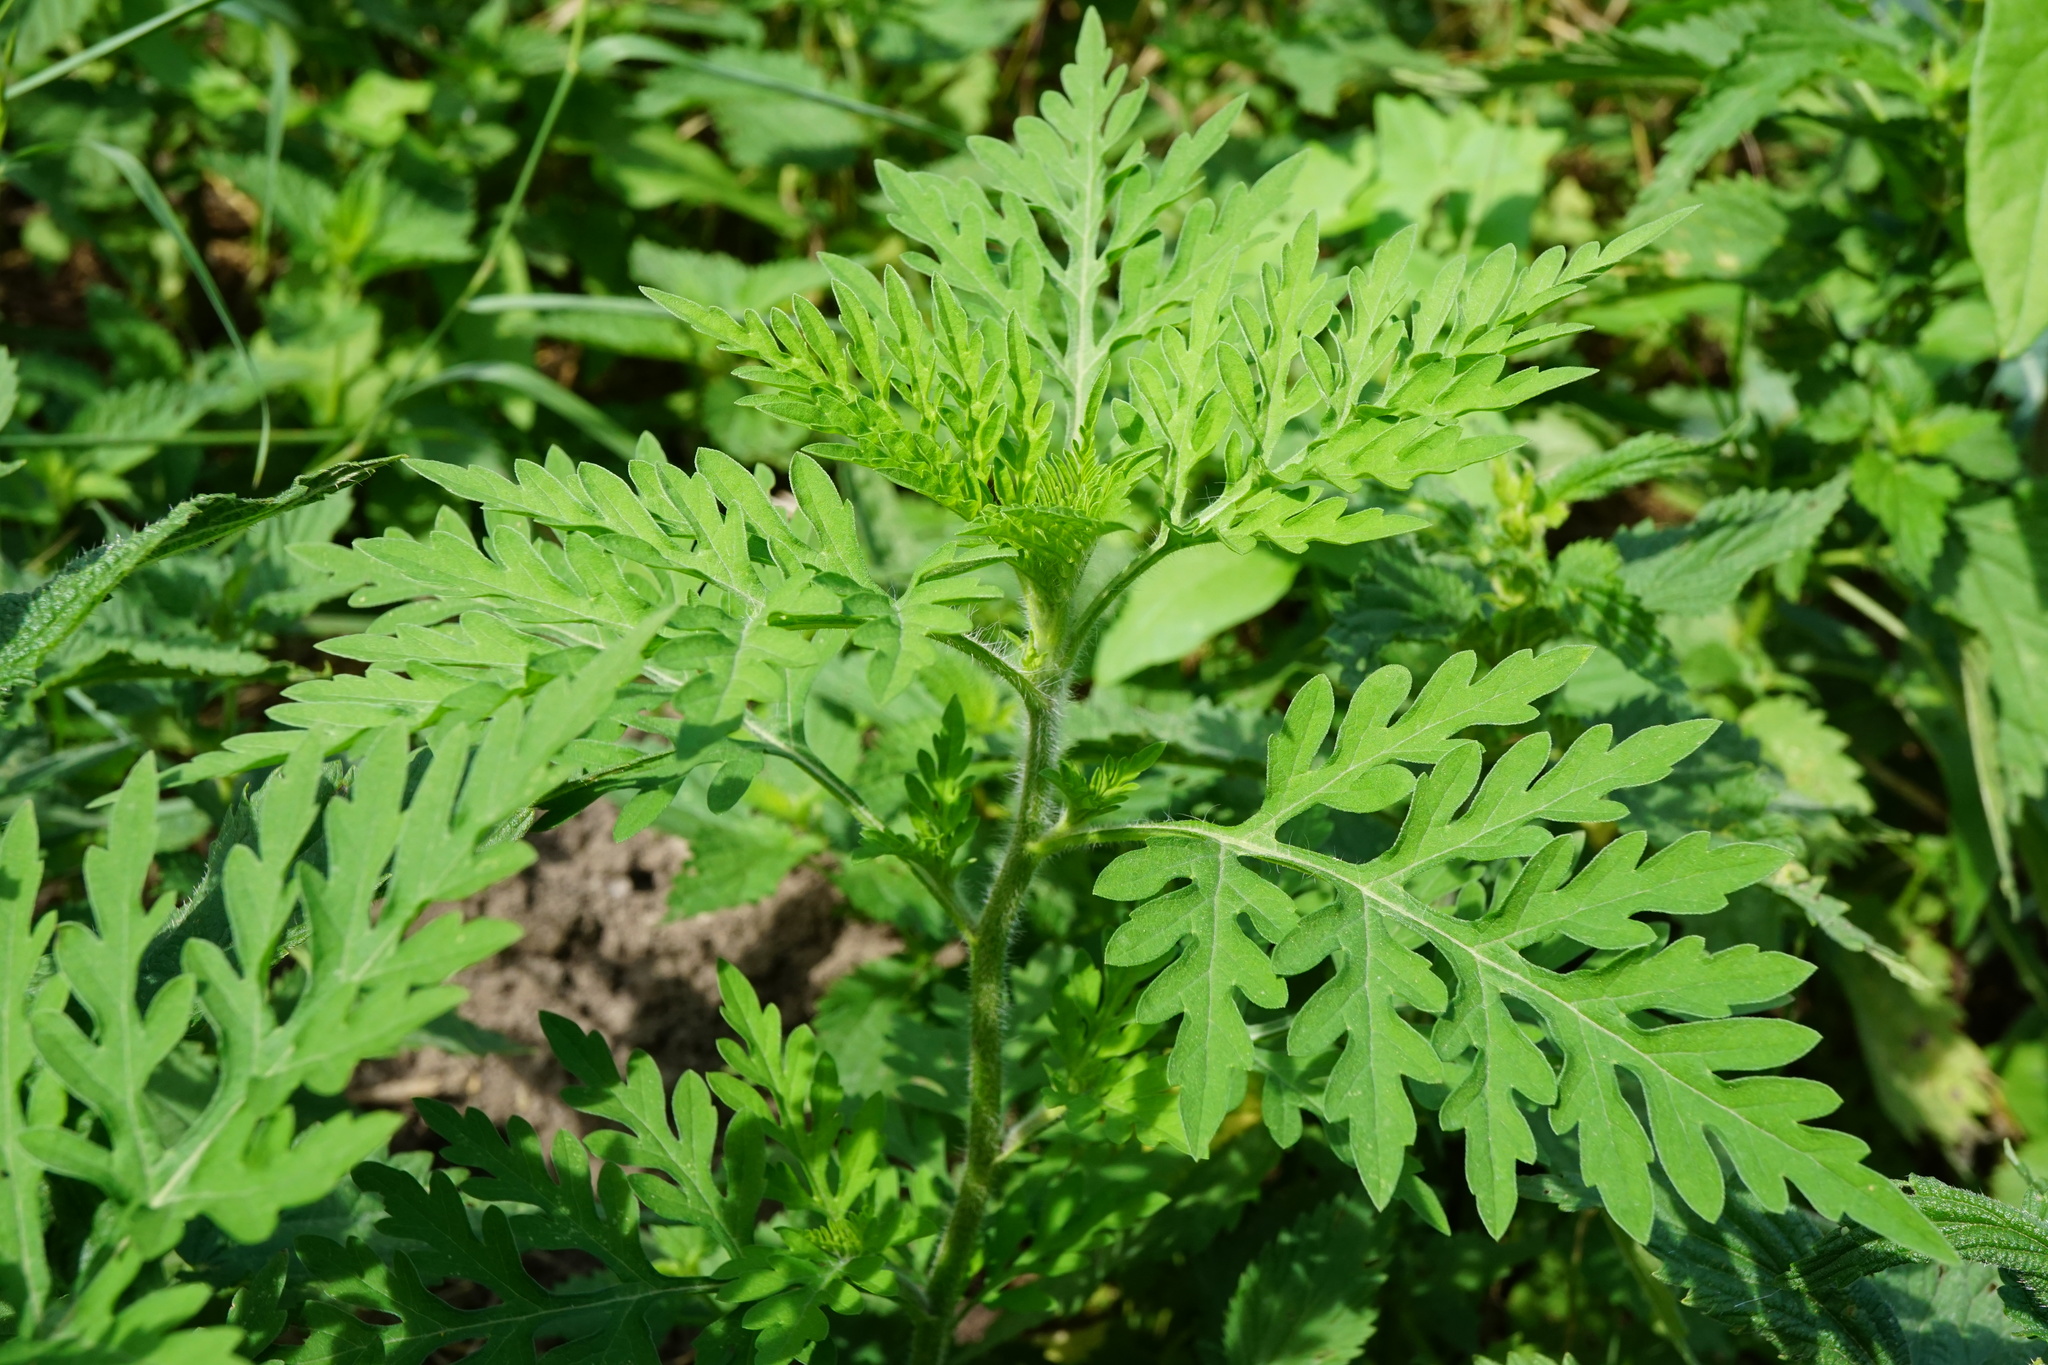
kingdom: Plantae
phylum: Tracheophyta
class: Magnoliopsida
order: Asterales
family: Asteraceae
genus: Ambrosia
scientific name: Ambrosia artemisiifolia
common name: Annual ragweed
